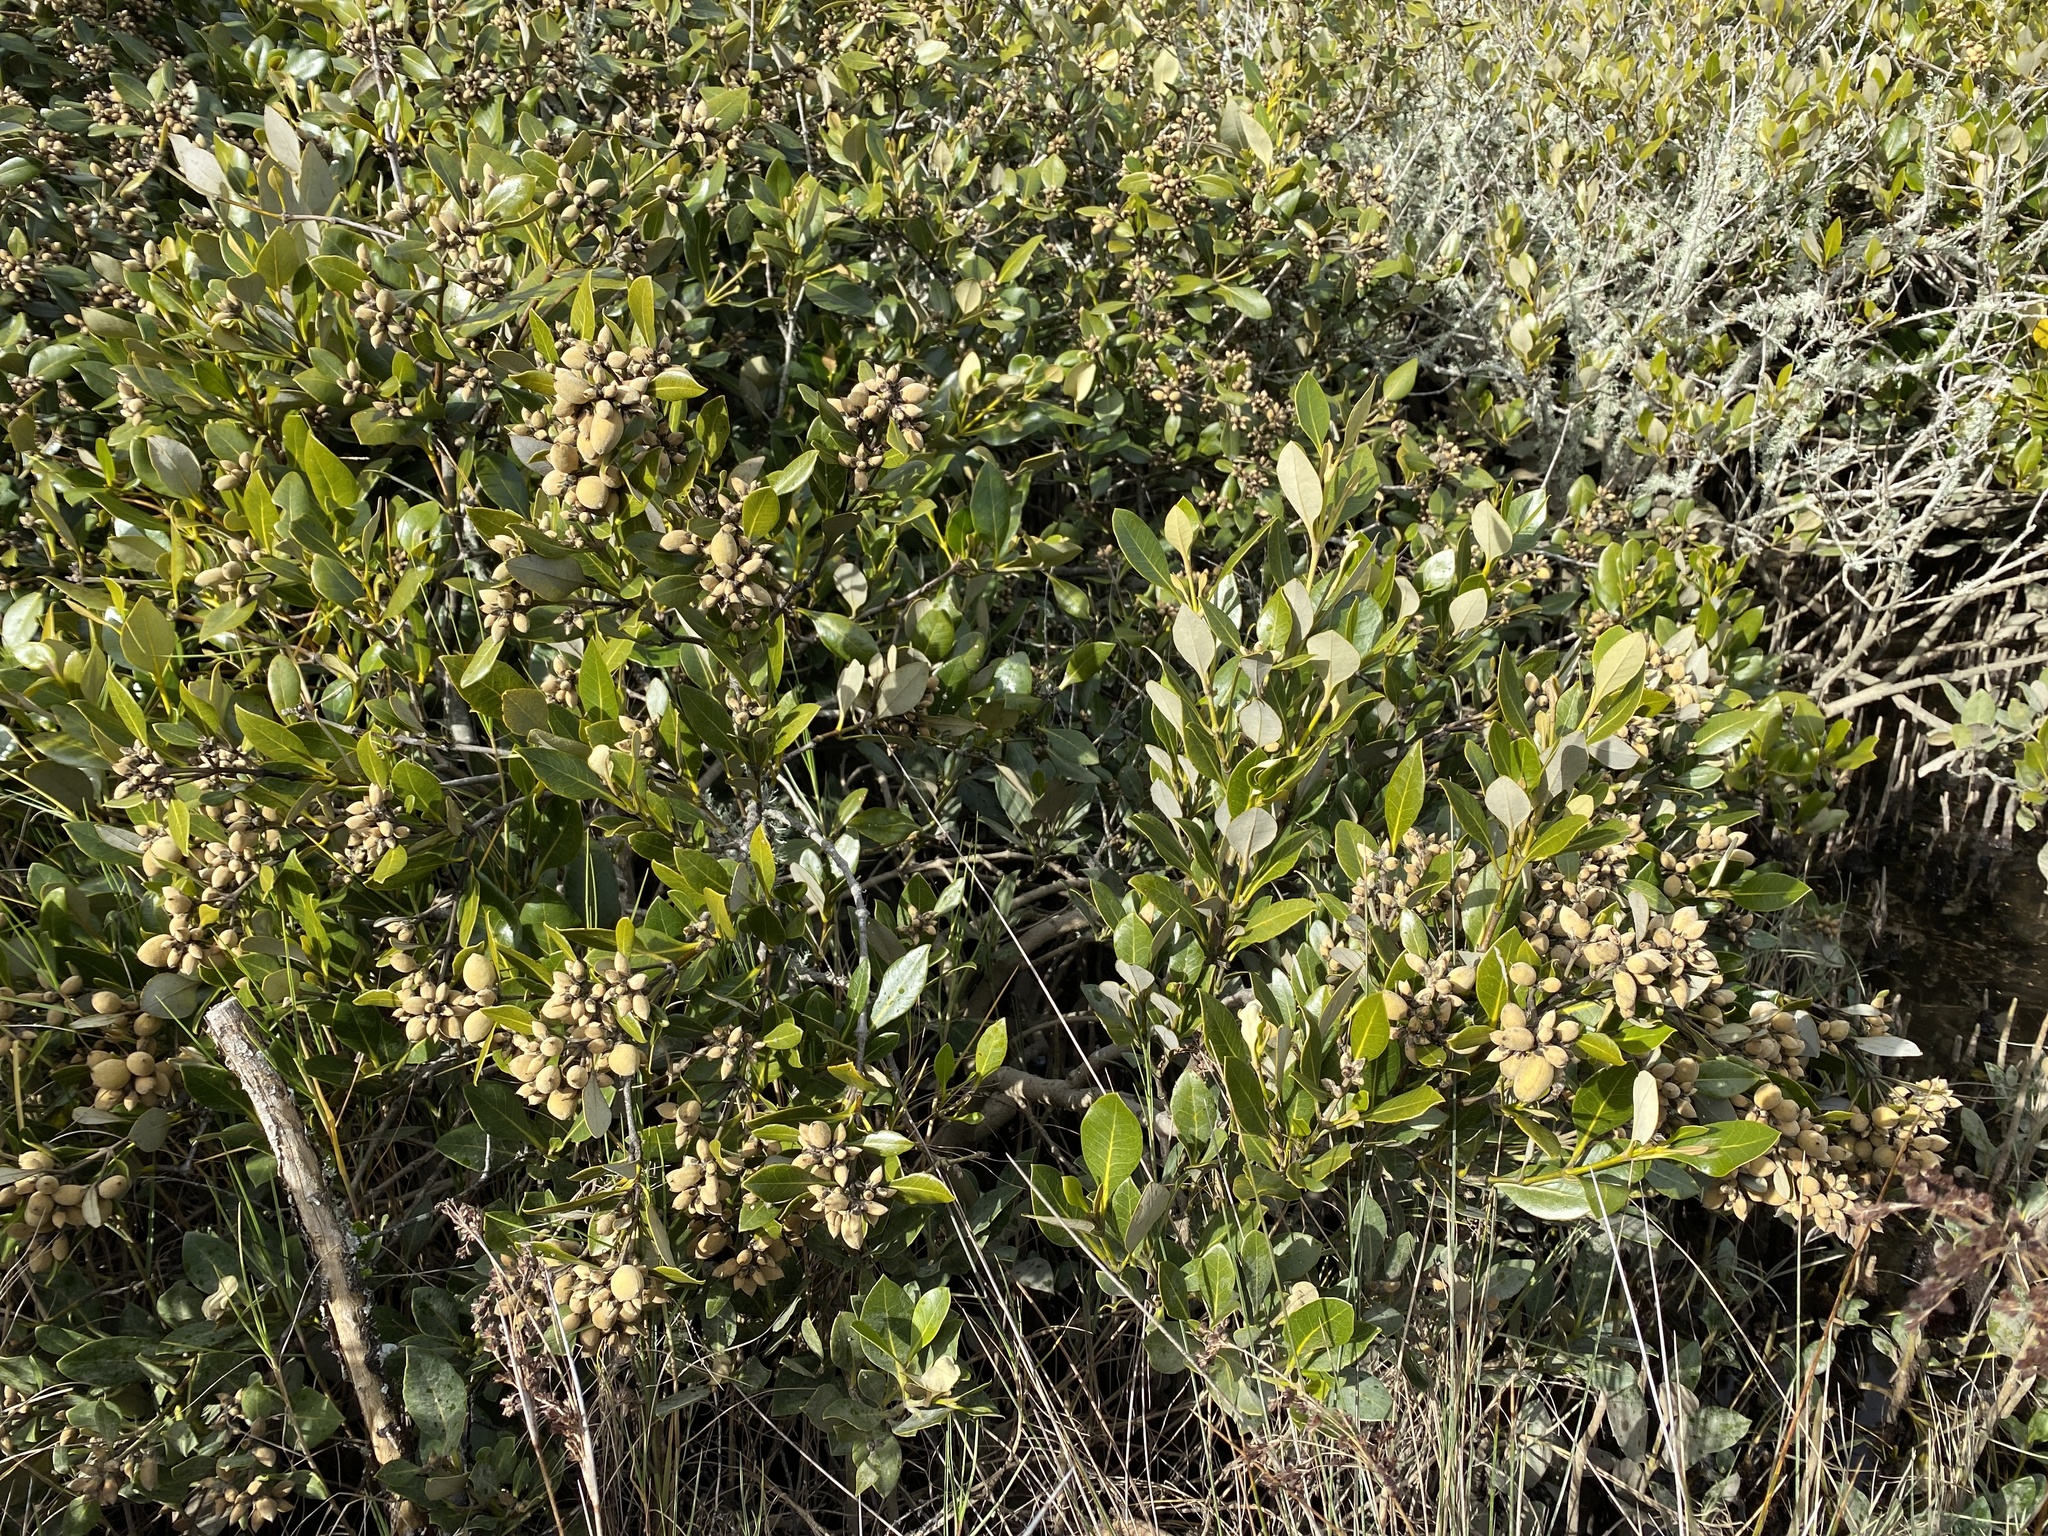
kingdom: Plantae
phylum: Tracheophyta
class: Magnoliopsida
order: Lamiales
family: Acanthaceae
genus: Avicennia
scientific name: Avicennia marina
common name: Gray mangrove
